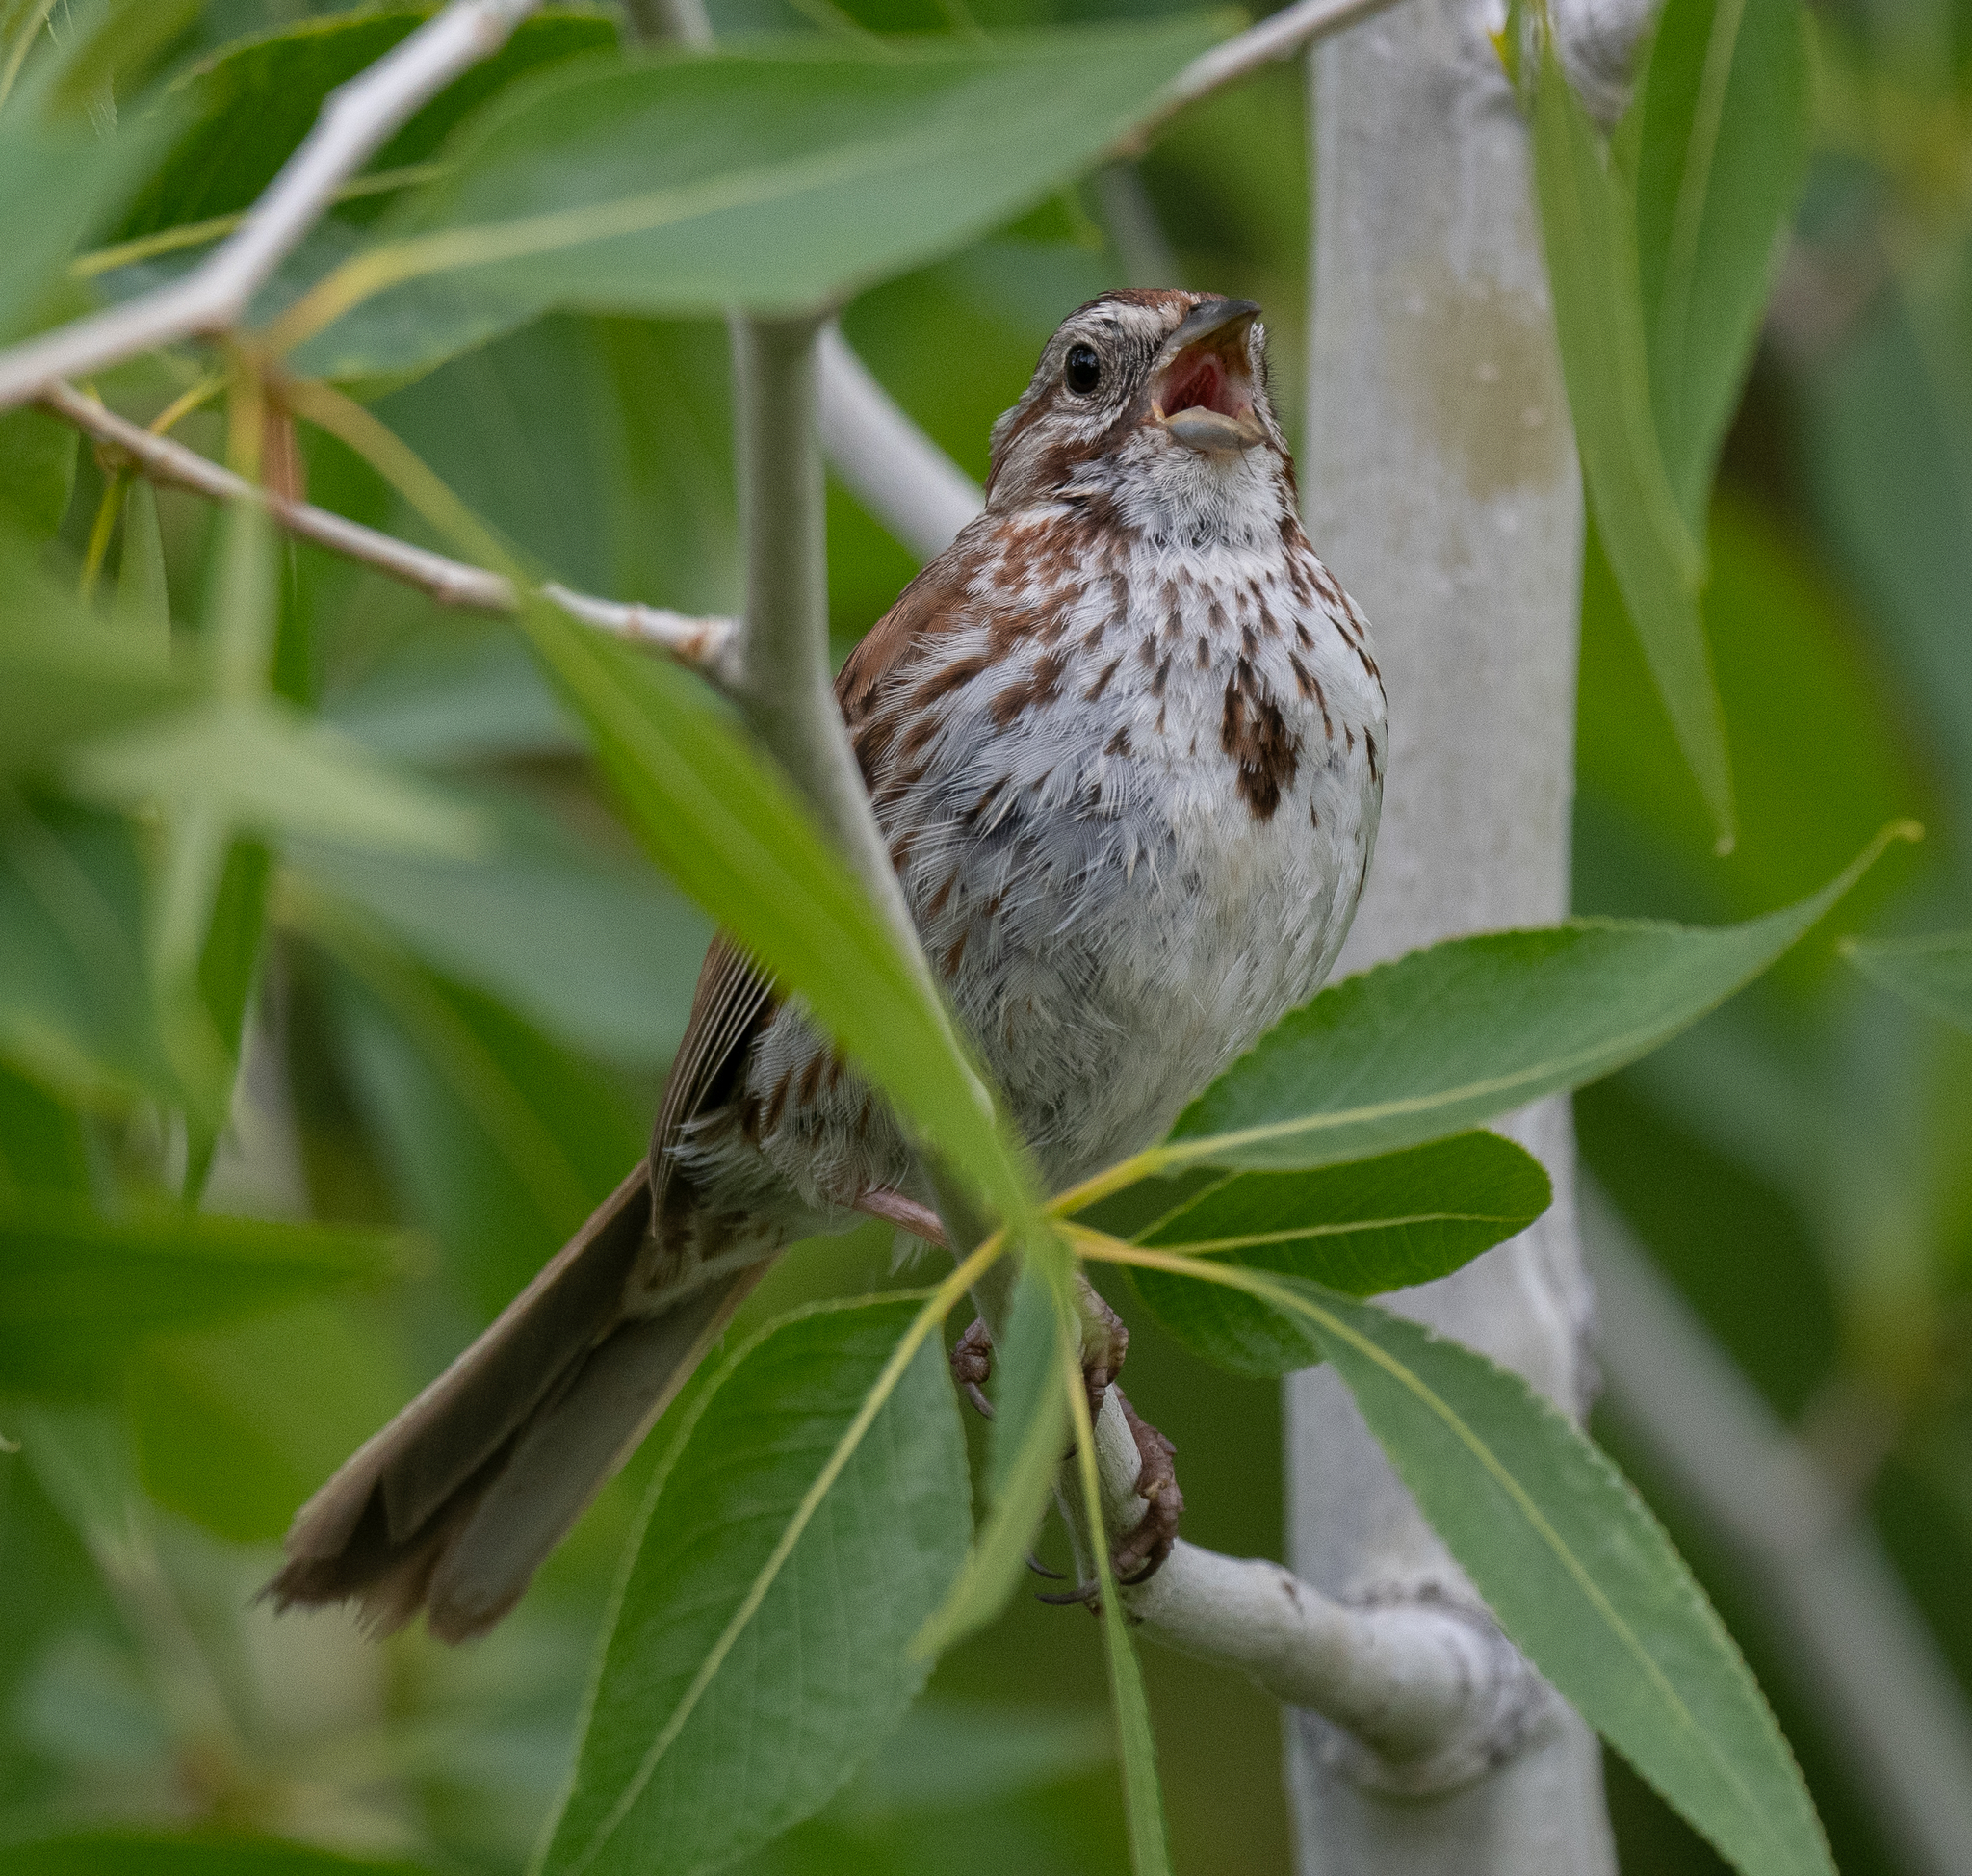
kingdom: Animalia
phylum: Chordata
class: Aves
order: Passeriformes
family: Passerellidae
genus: Melospiza
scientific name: Melospiza melodia
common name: Song sparrow
